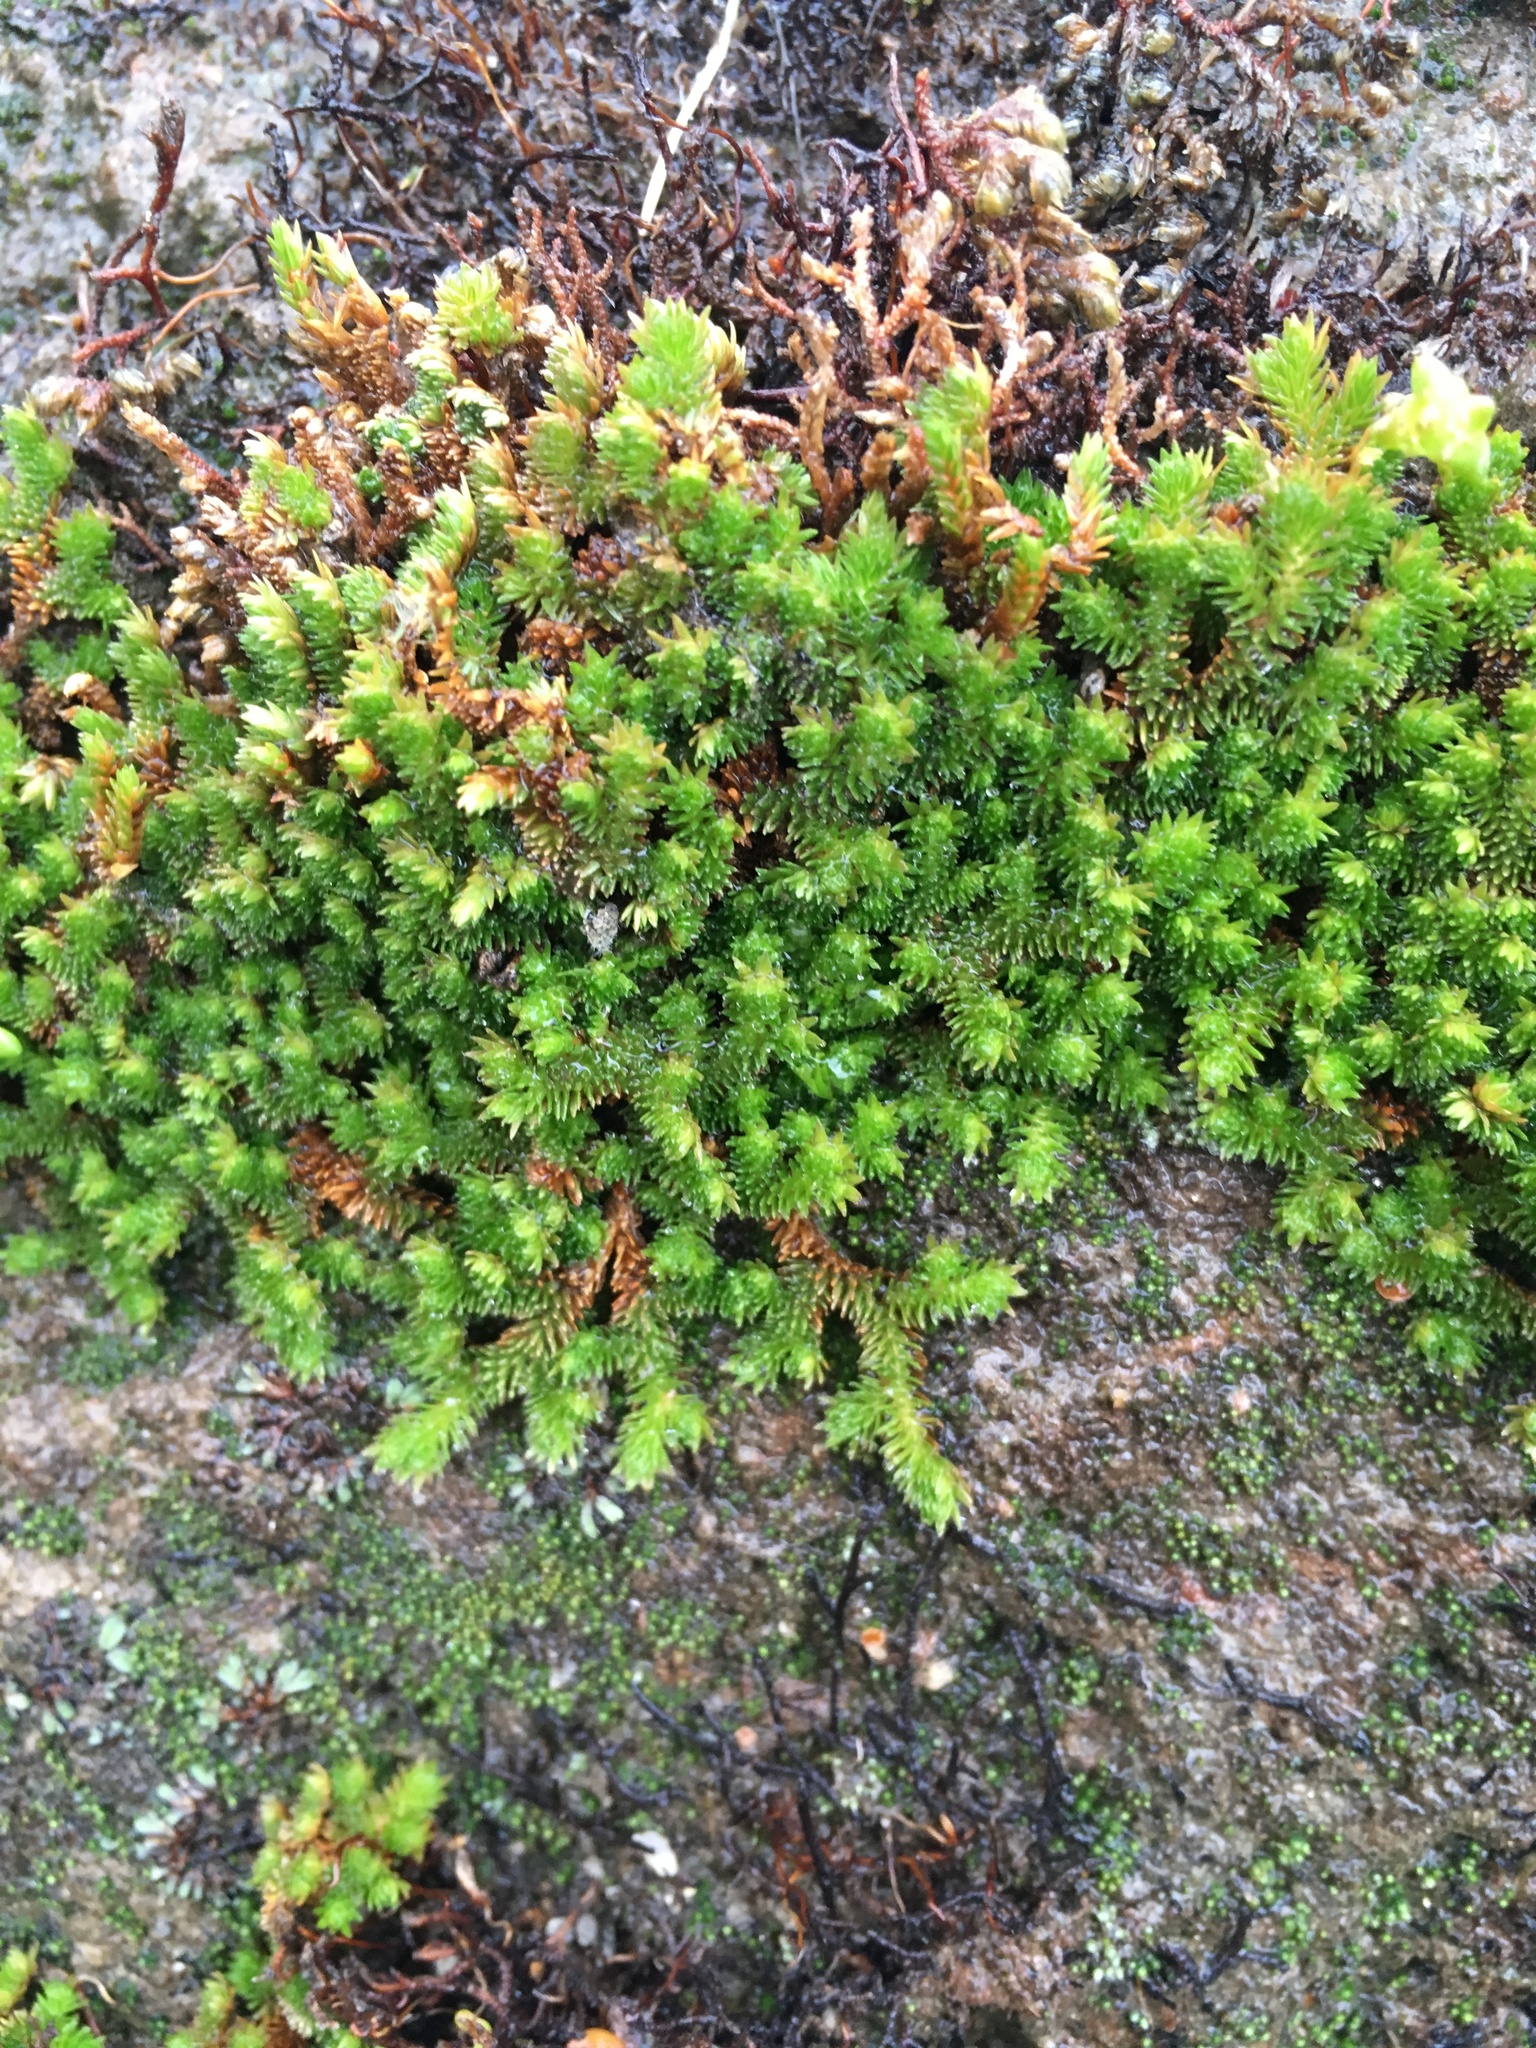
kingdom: Plantae
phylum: Tracheophyta
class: Lycopodiopsida
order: Selaginellales
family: Selaginellaceae
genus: Selaginella
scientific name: Selaginella eremophila
